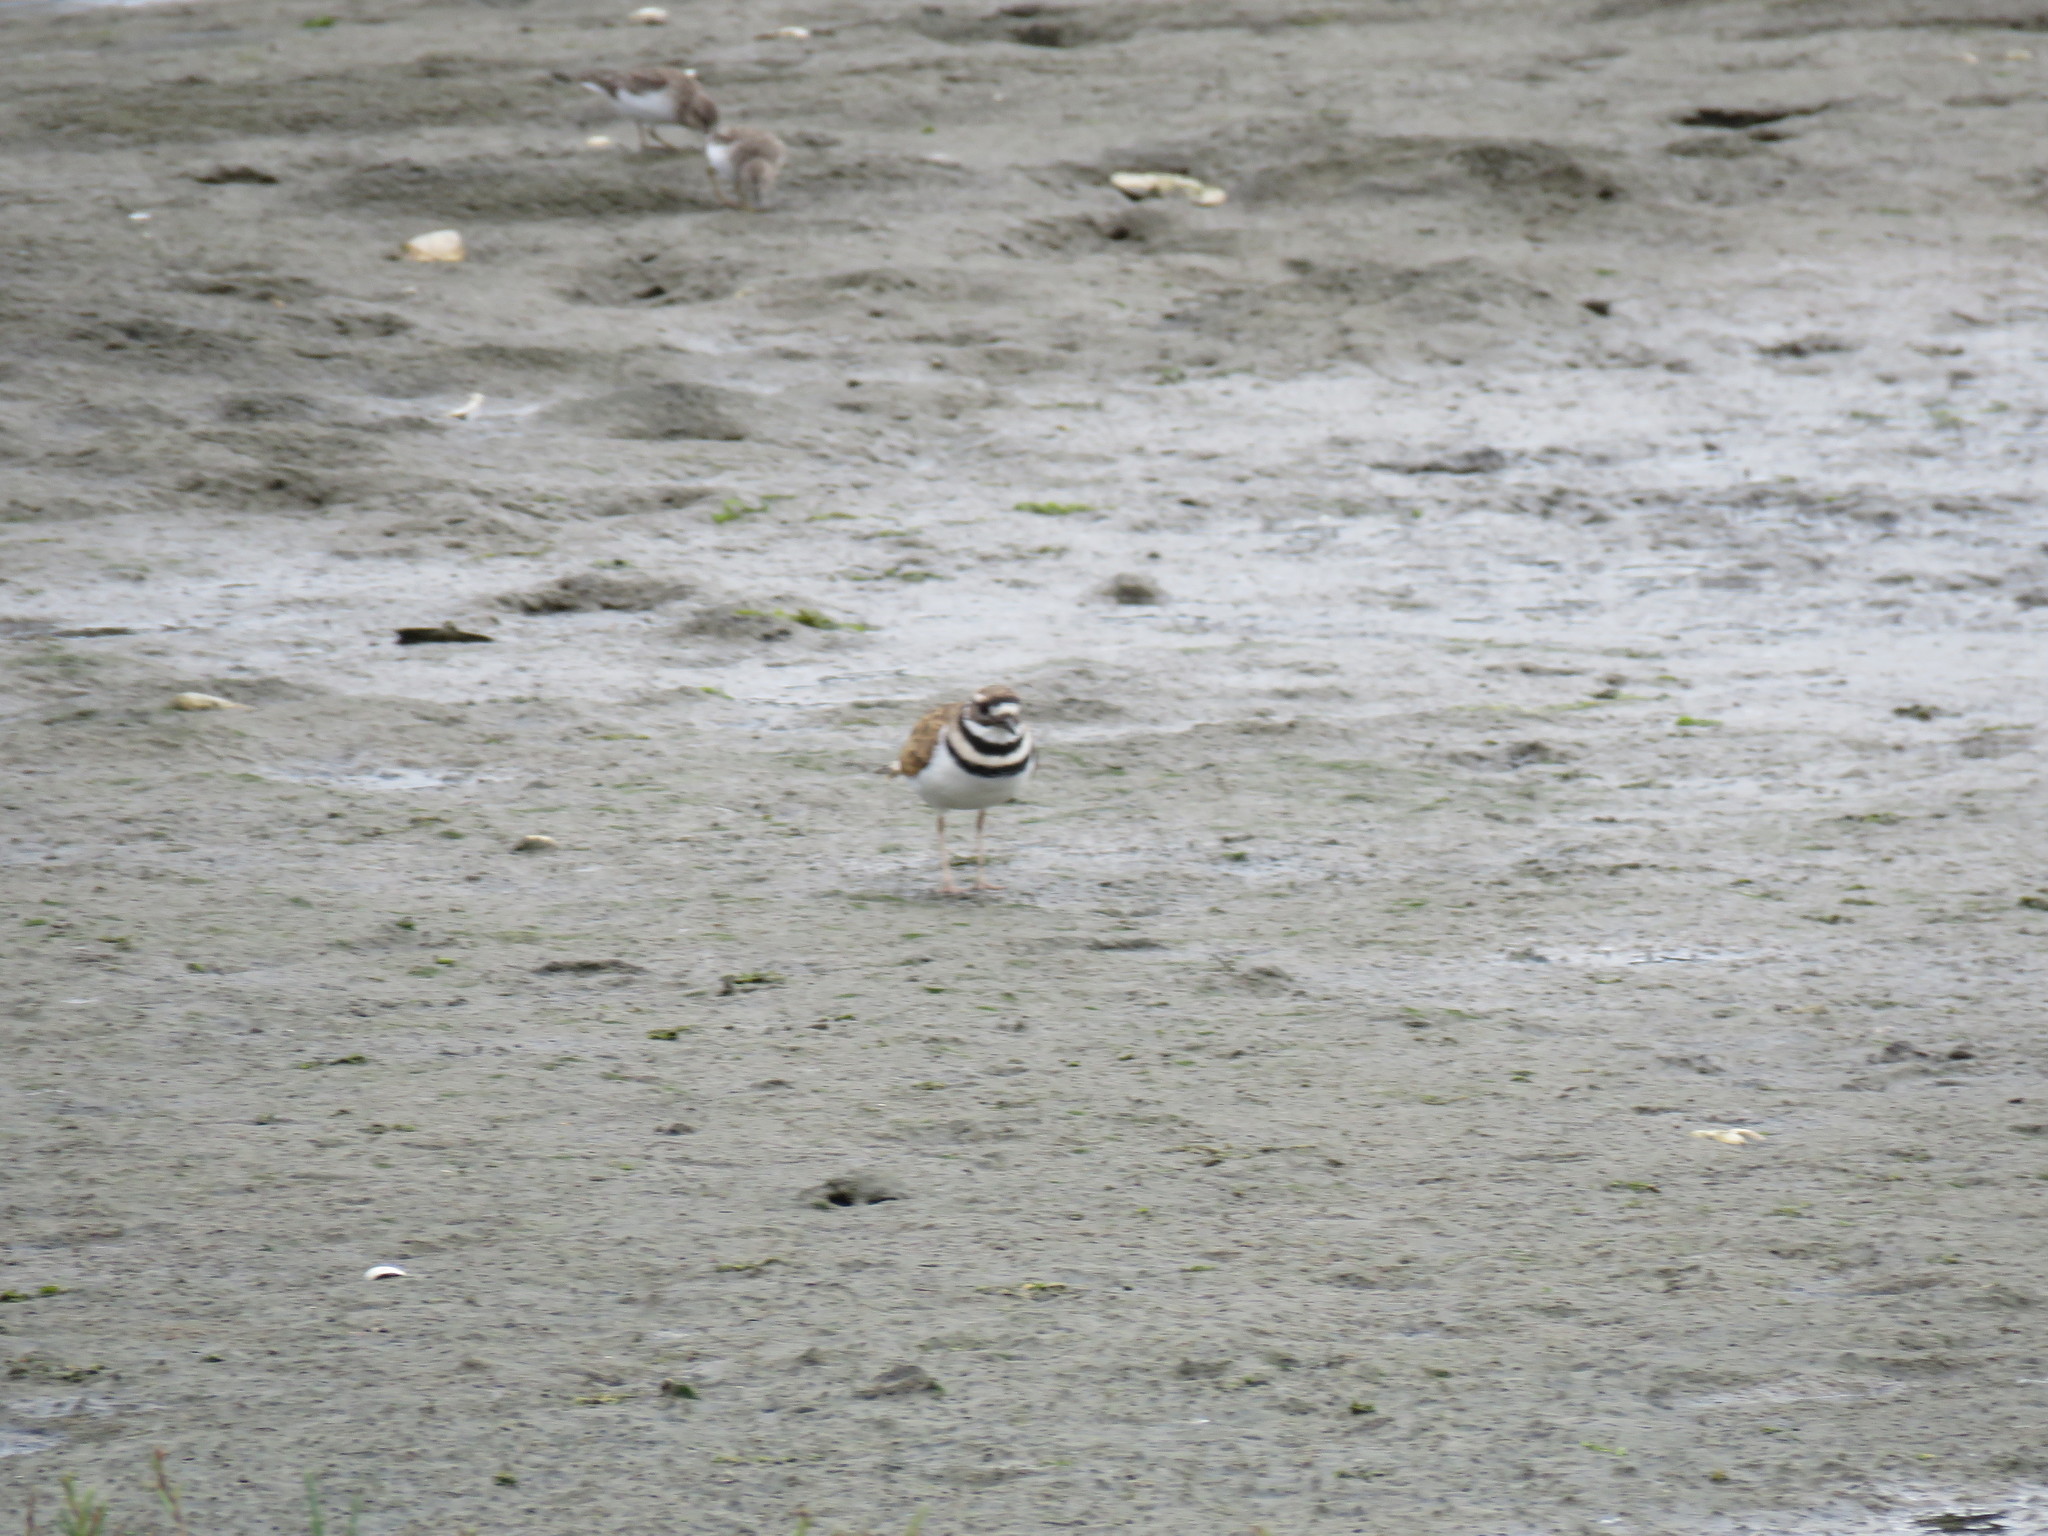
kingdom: Animalia
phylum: Chordata
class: Aves
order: Charadriiformes
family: Charadriidae
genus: Charadrius
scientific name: Charadrius vociferus
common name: Killdeer
